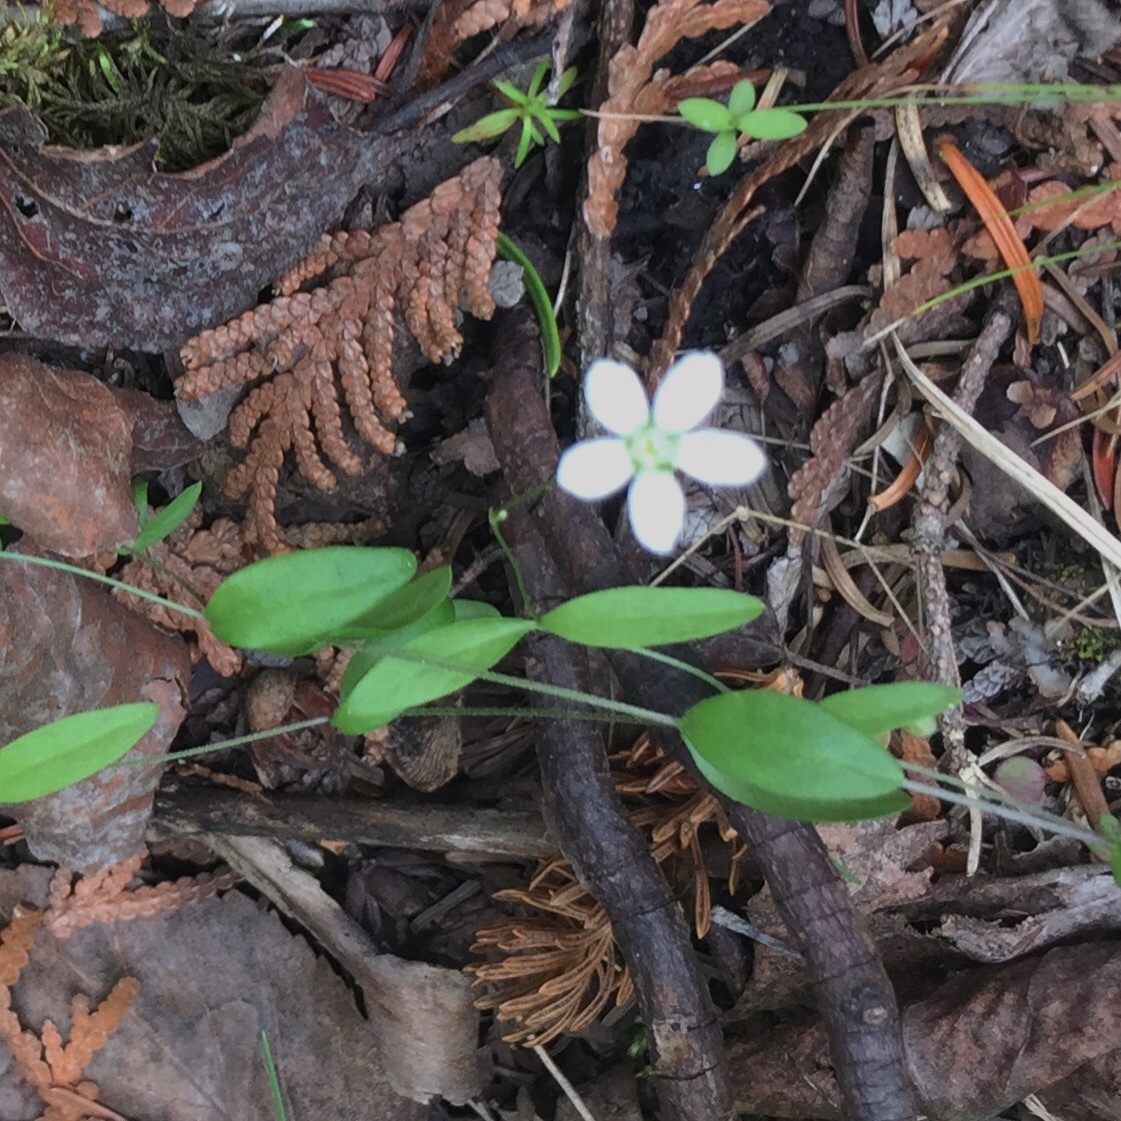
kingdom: Plantae
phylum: Tracheophyta
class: Magnoliopsida
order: Caryophyllales
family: Caryophyllaceae
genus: Moehringia
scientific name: Moehringia lateriflora
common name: Blunt-leaved sandwort
